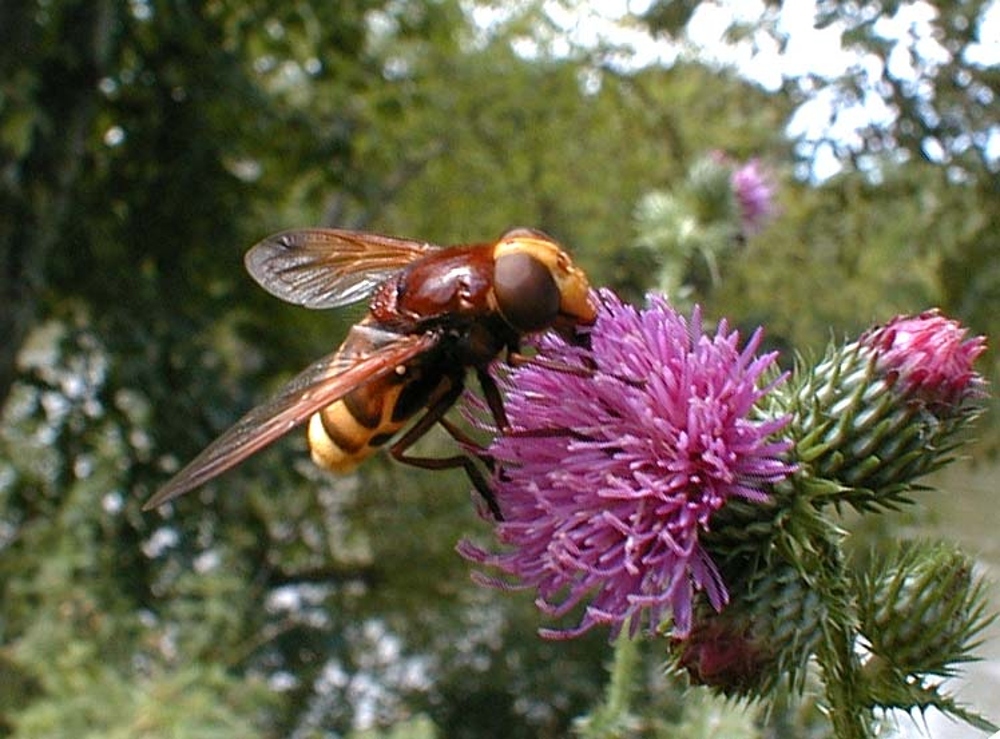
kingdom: Animalia
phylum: Arthropoda
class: Insecta
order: Diptera
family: Syrphidae
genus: Volucella
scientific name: Volucella zonaria
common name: Hornet hoverfly
